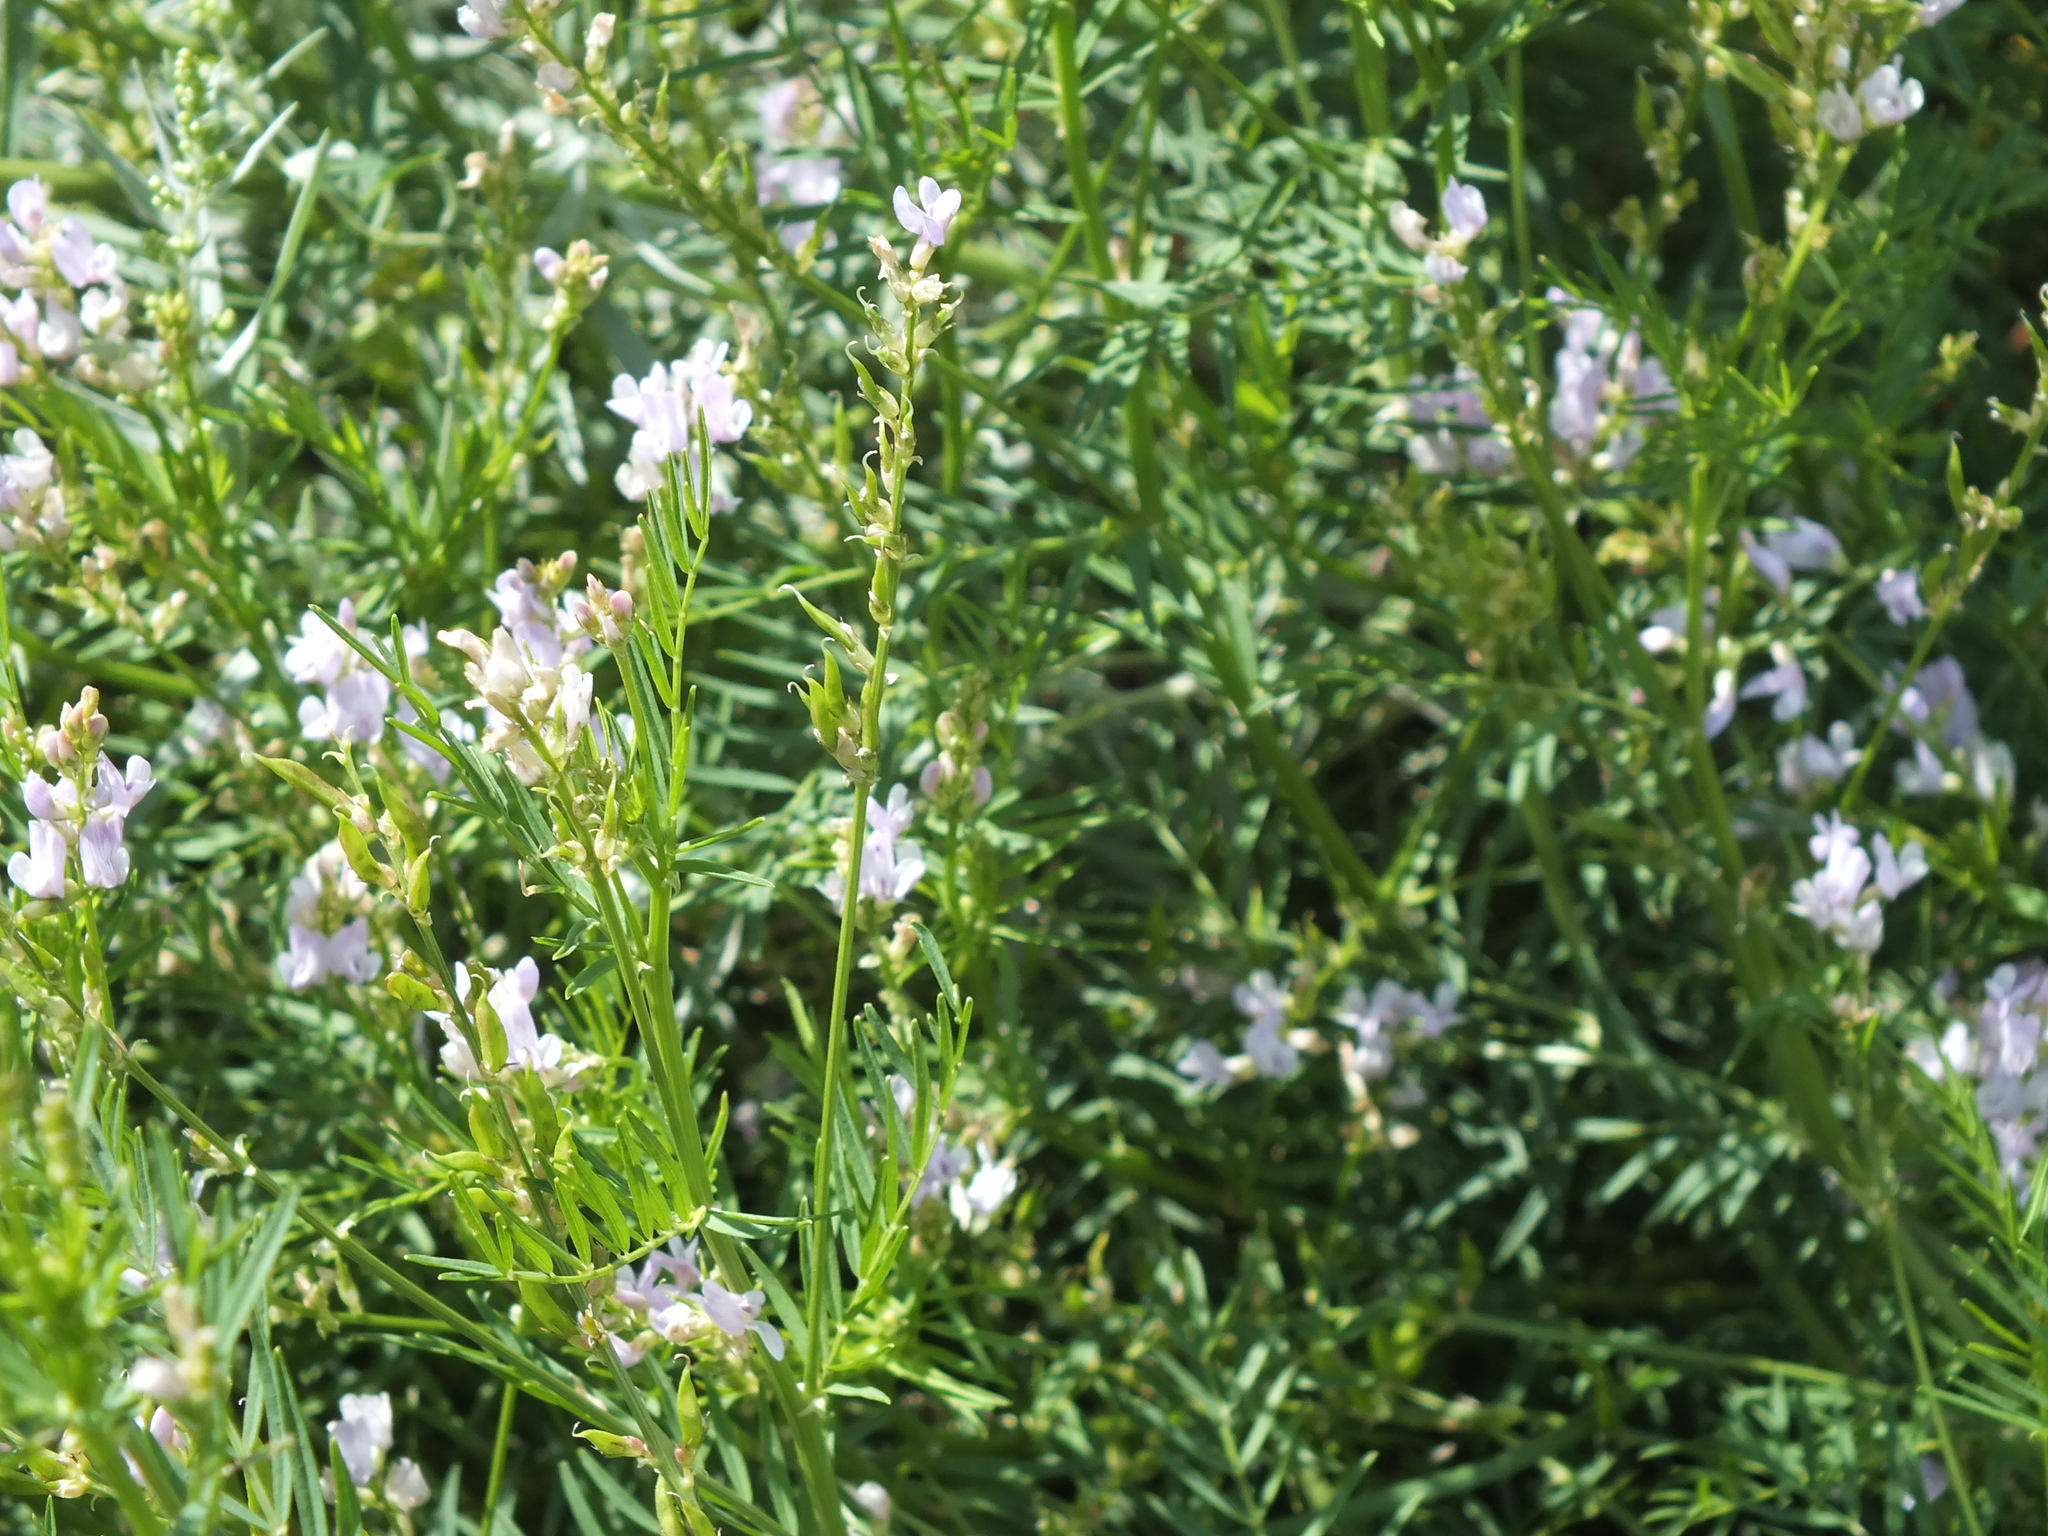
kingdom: Plantae
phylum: Tracheophyta
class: Magnoliopsida
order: Fabales
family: Fabaceae
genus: Astragalus
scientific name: Astragalus sulcatus
